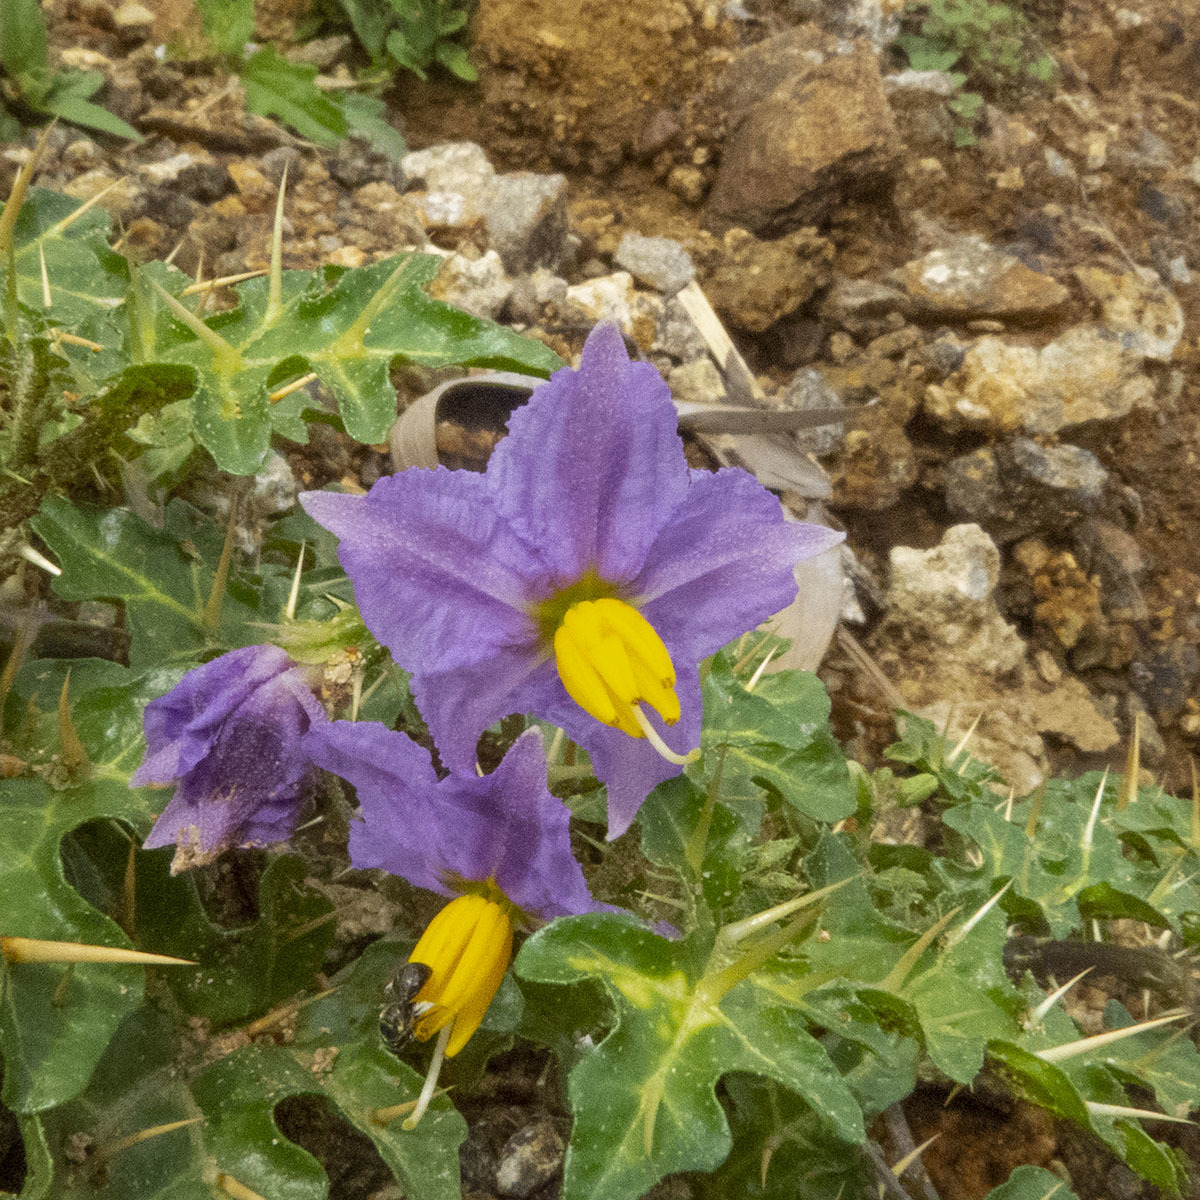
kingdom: Plantae
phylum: Tracheophyta
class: Magnoliopsida
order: Solanales
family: Solanaceae
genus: Solanum
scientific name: Solanum virginianum
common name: Surattense nightshade
